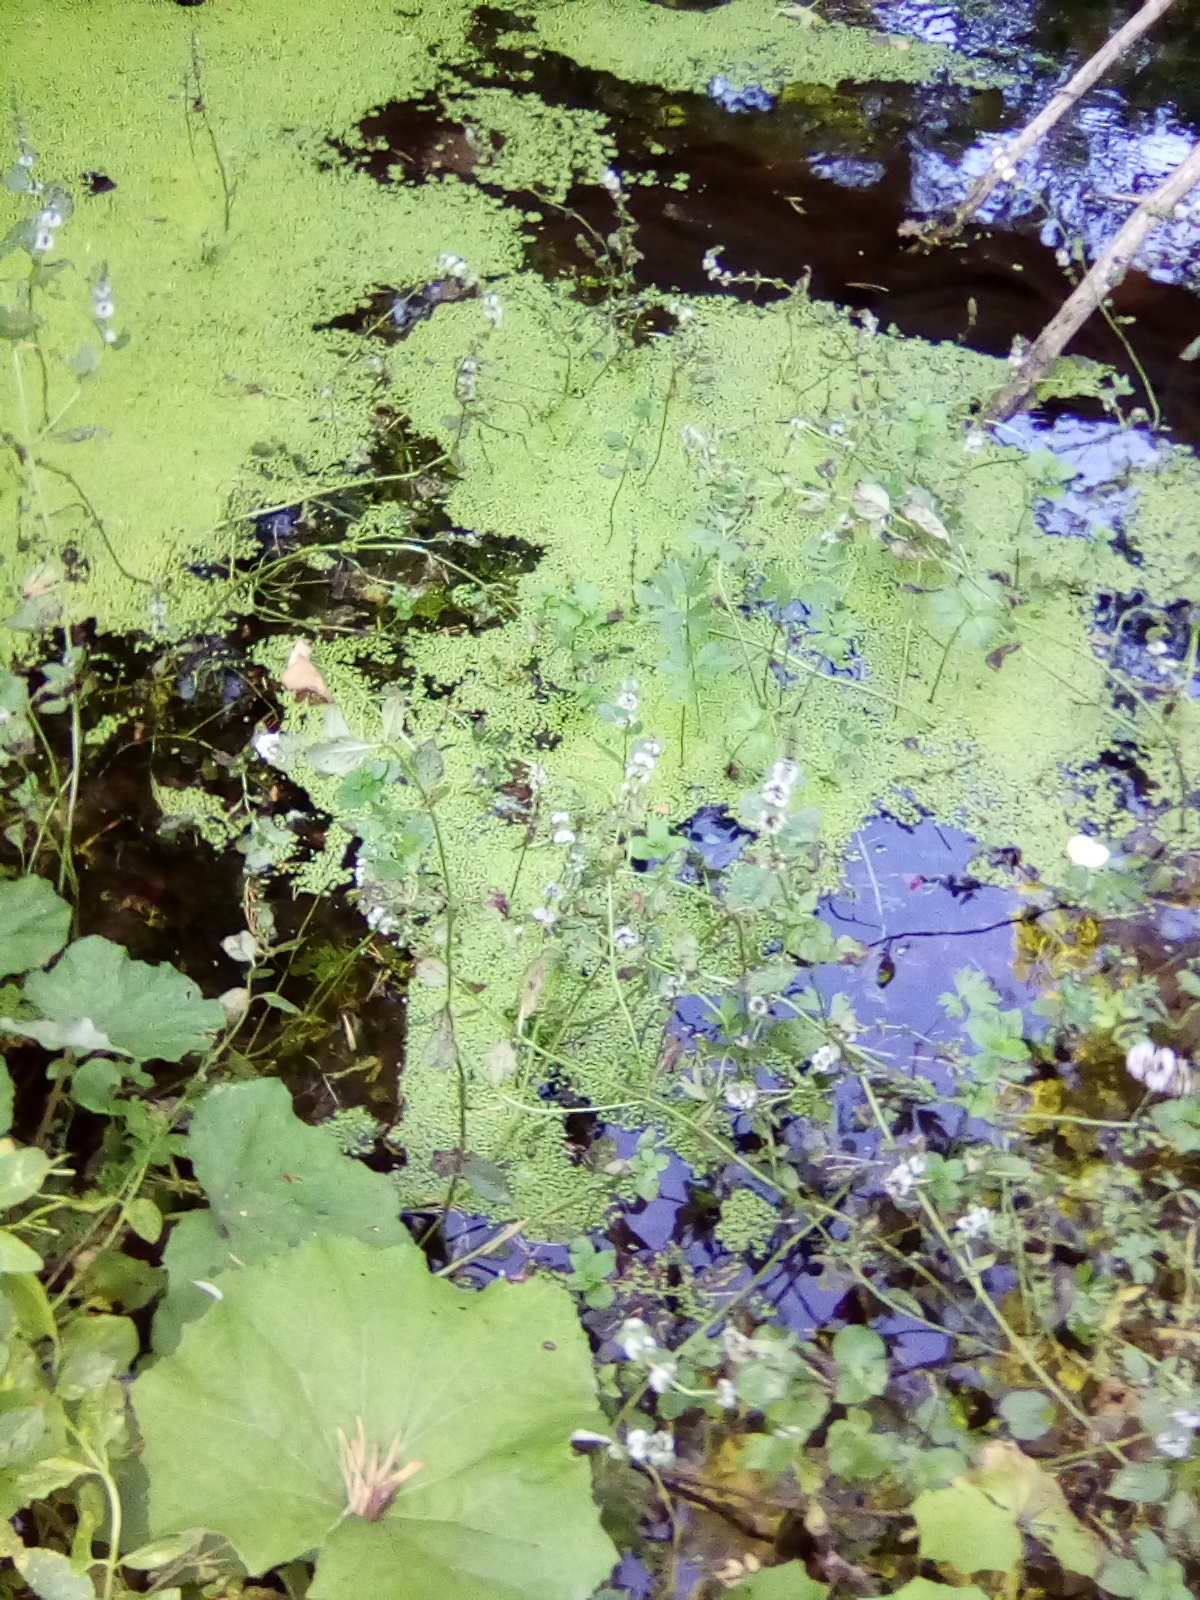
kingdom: Plantae
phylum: Tracheophyta
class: Magnoliopsida
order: Lamiales
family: Lamiaceae
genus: Lycopus
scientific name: Lycopus europaeus
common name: European bugleweed
